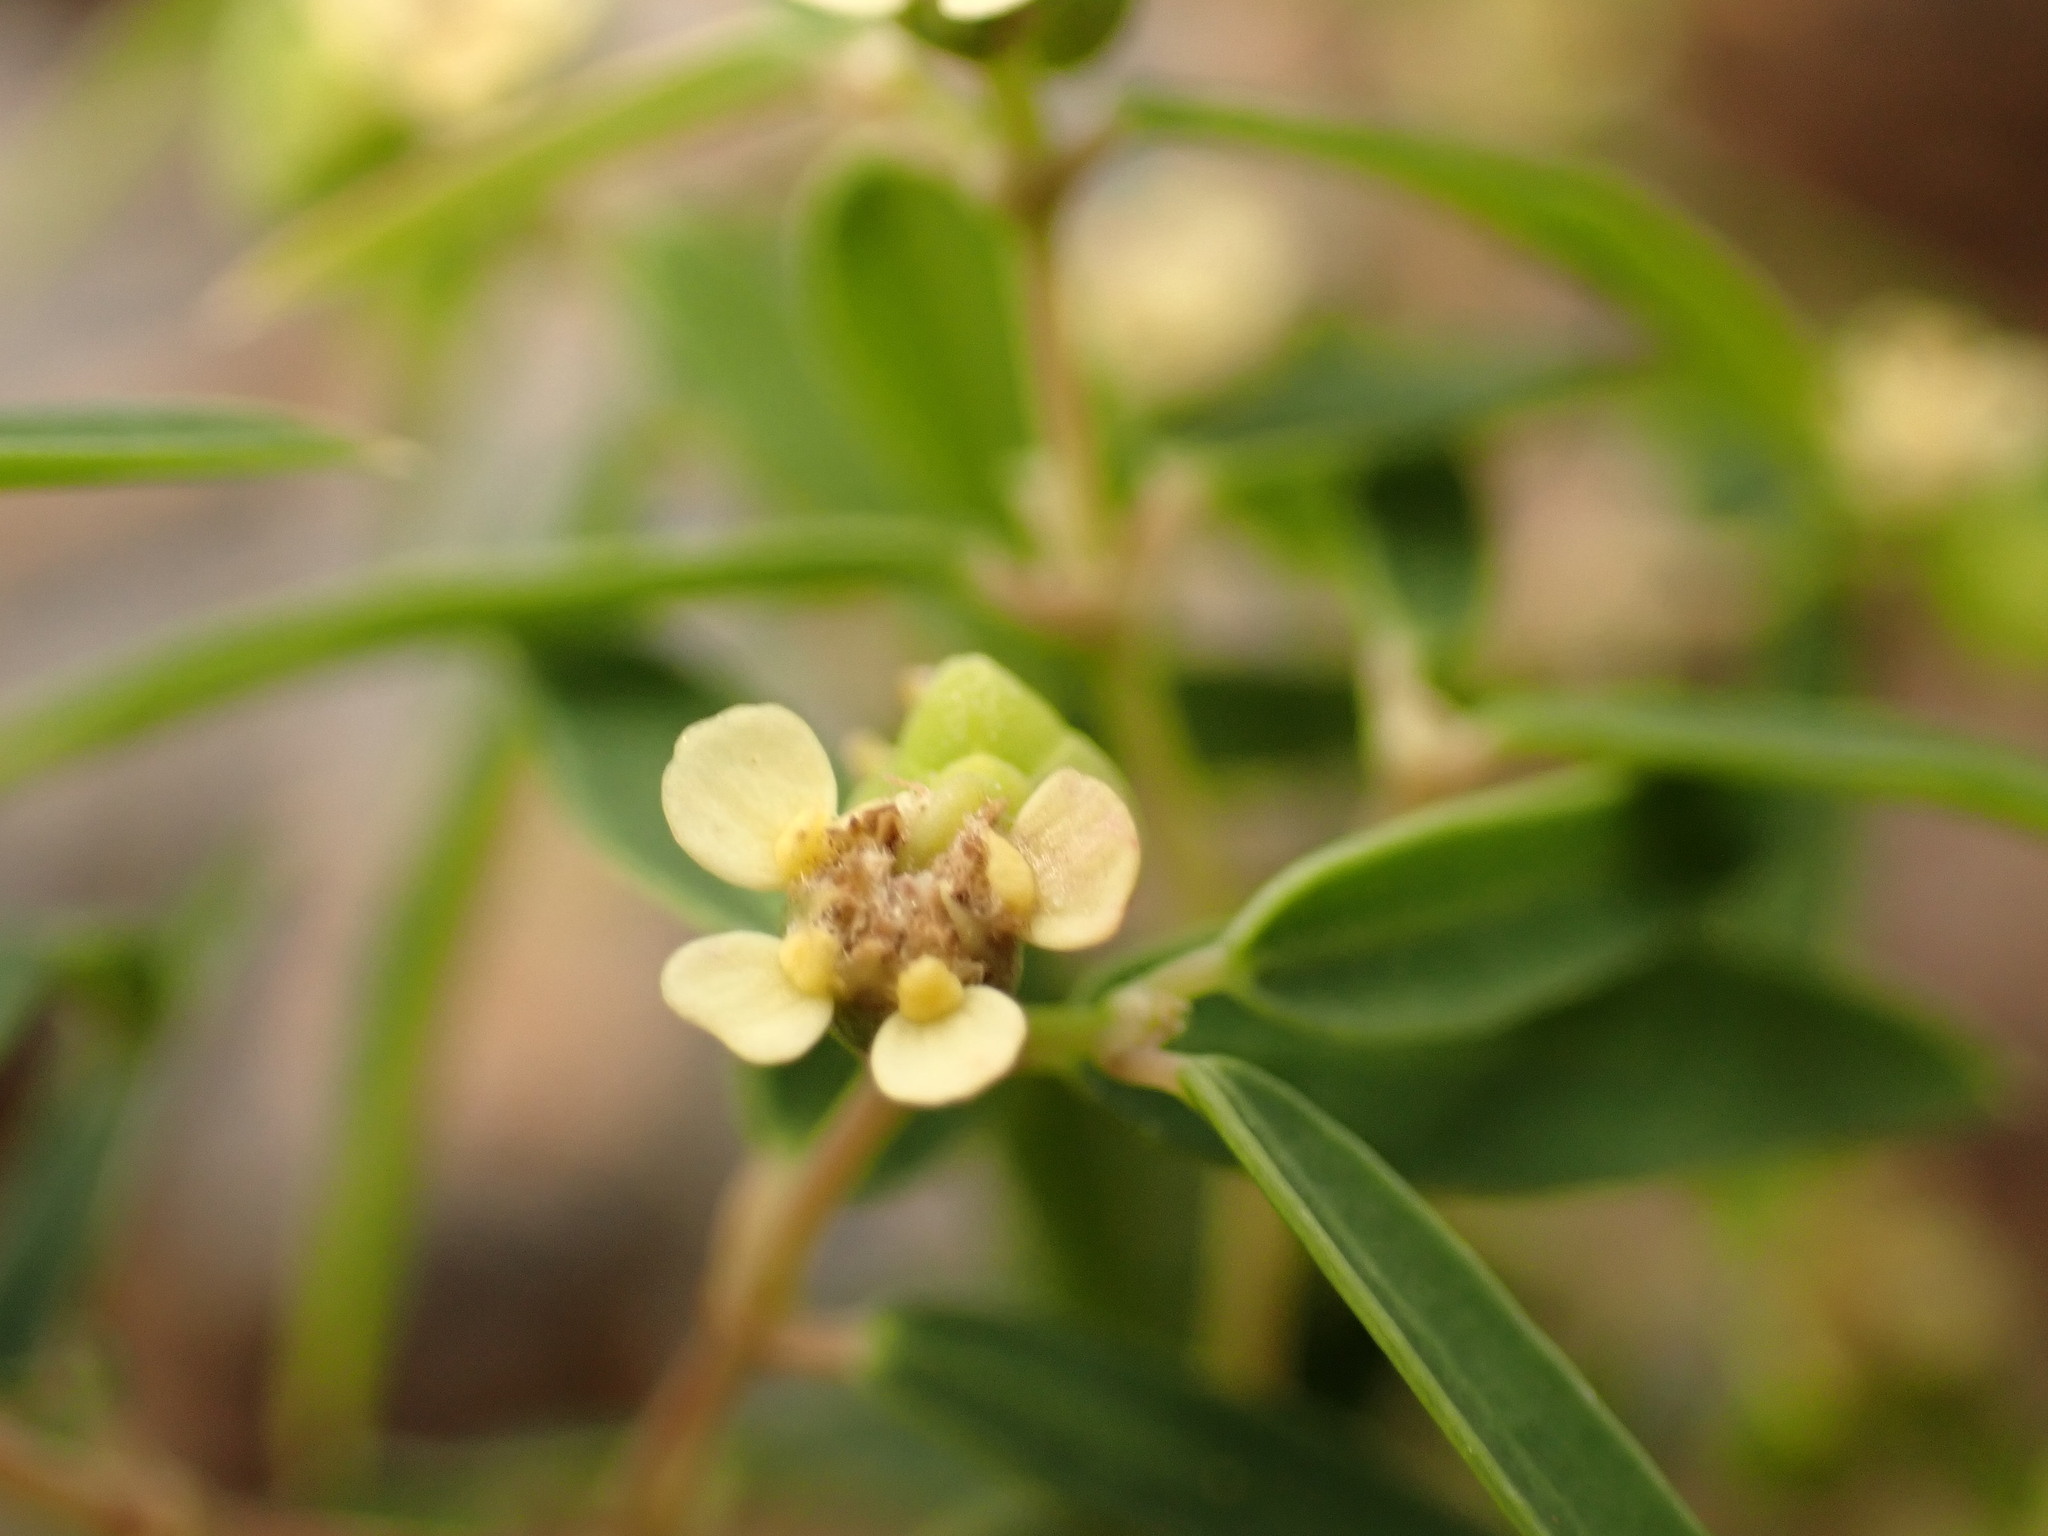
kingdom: Plantae
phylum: Tracheophyta
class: Magnoliopsida
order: Malpighiales
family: Euphorbiaceae
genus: Euphorbia
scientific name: Euphorbia potentilloides
